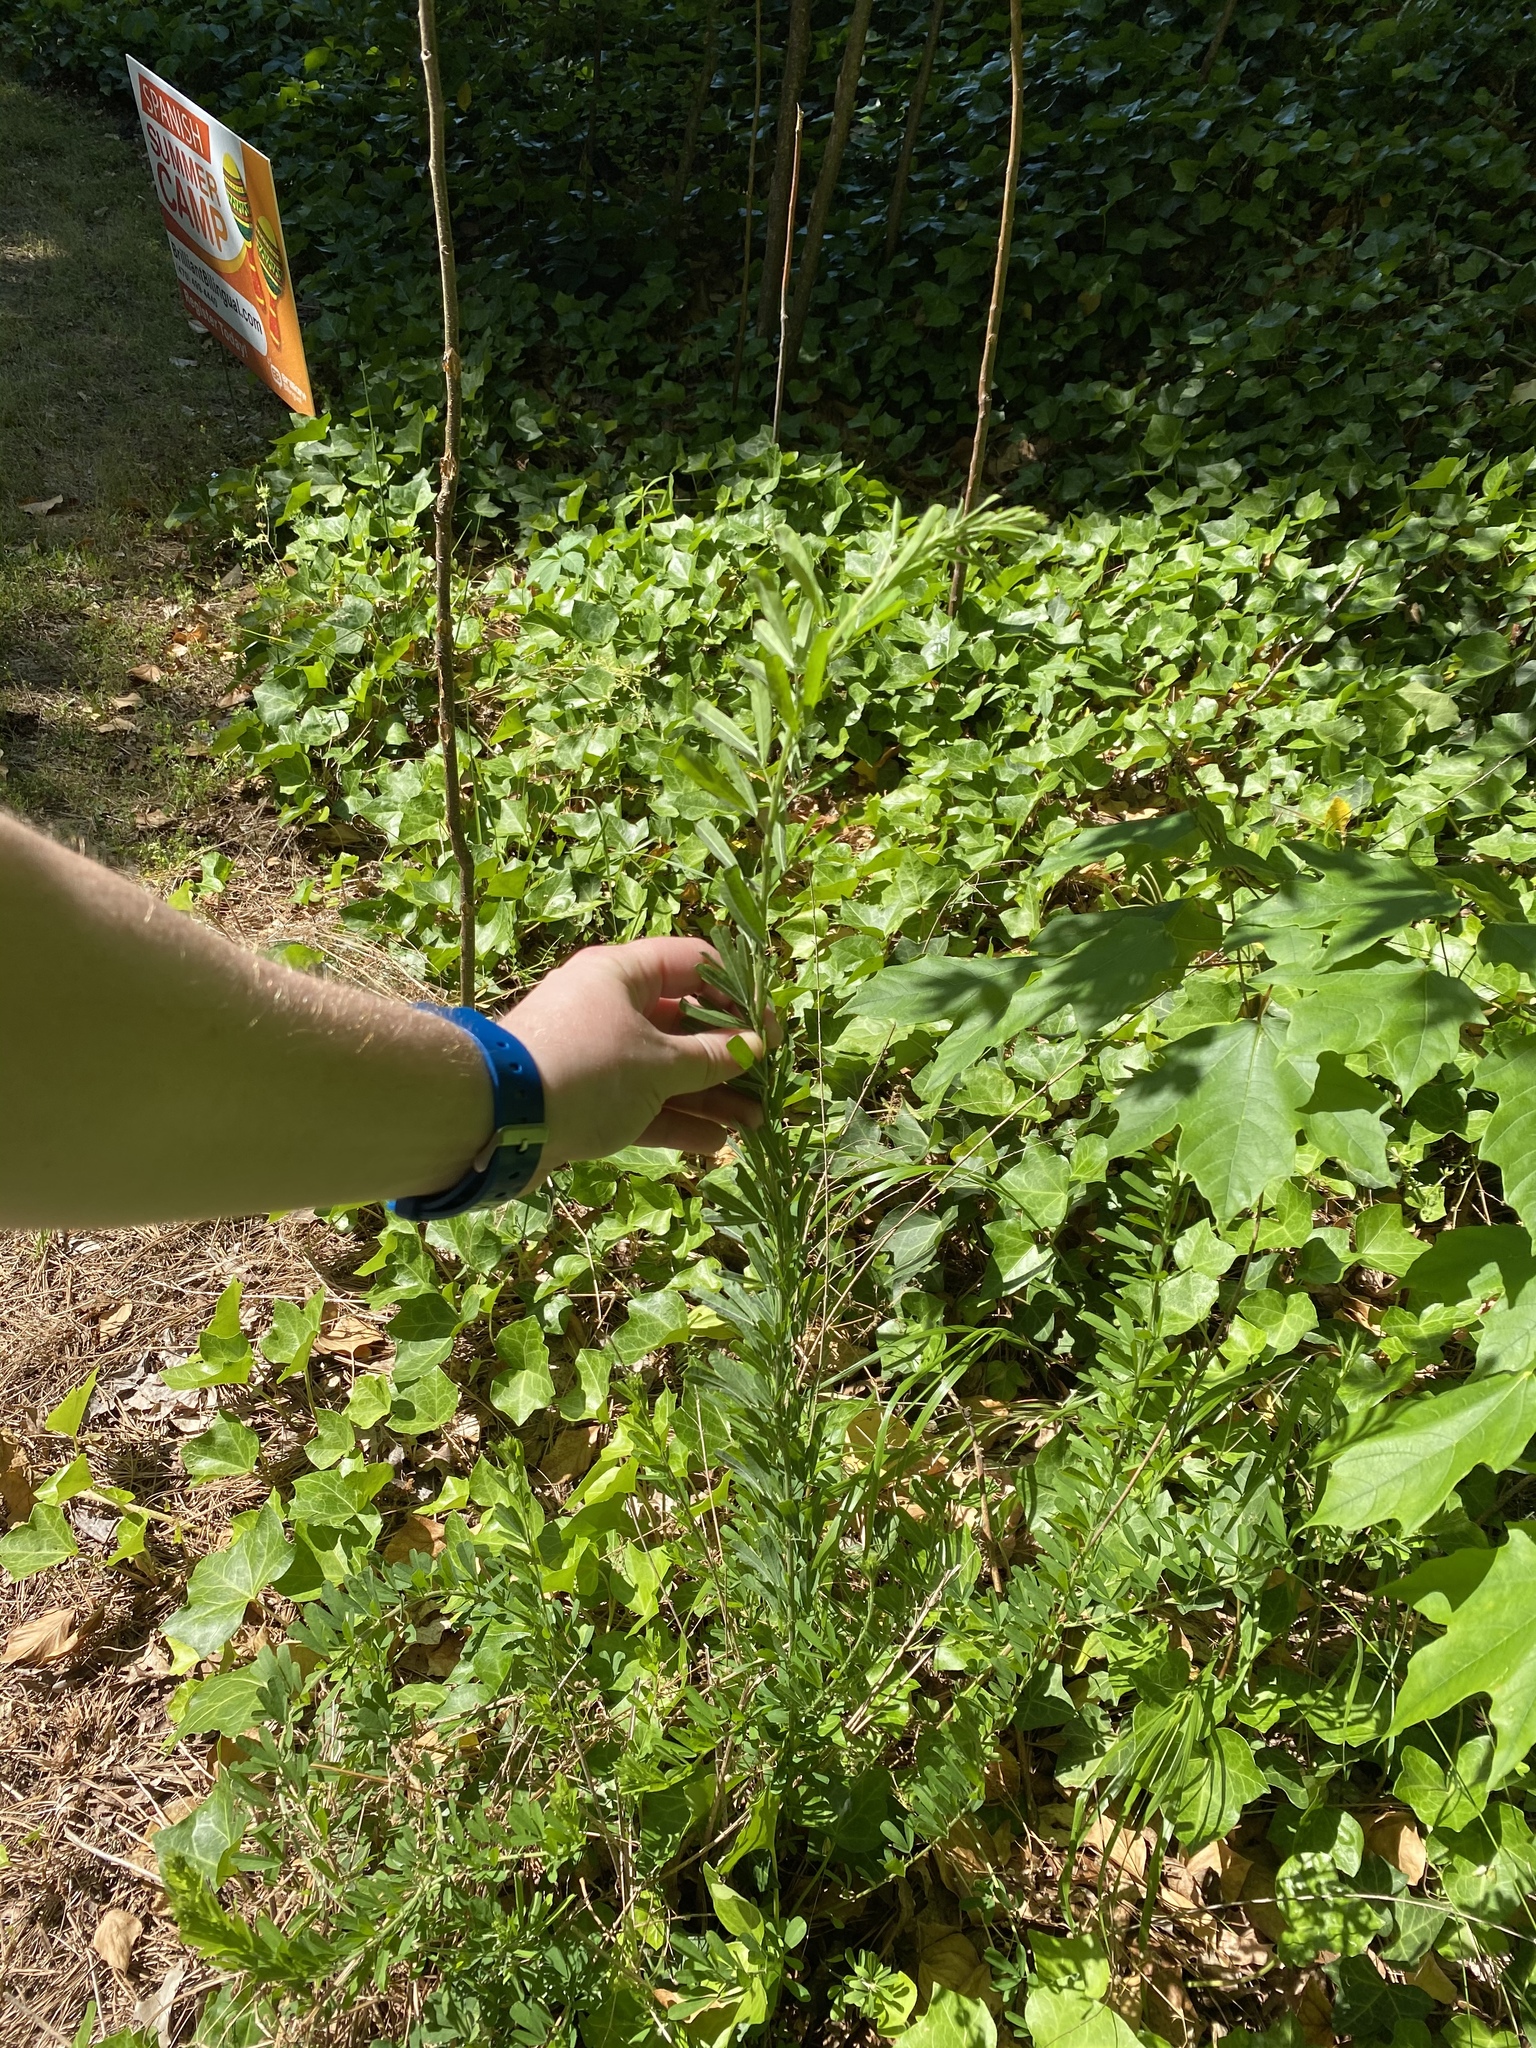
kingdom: Plantae
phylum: Tracheophyta
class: Magnoliopsida
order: Fabales
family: Fabaceae
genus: Lespedeza
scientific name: Lespedeza cuneata
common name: Chinese bush-clover
